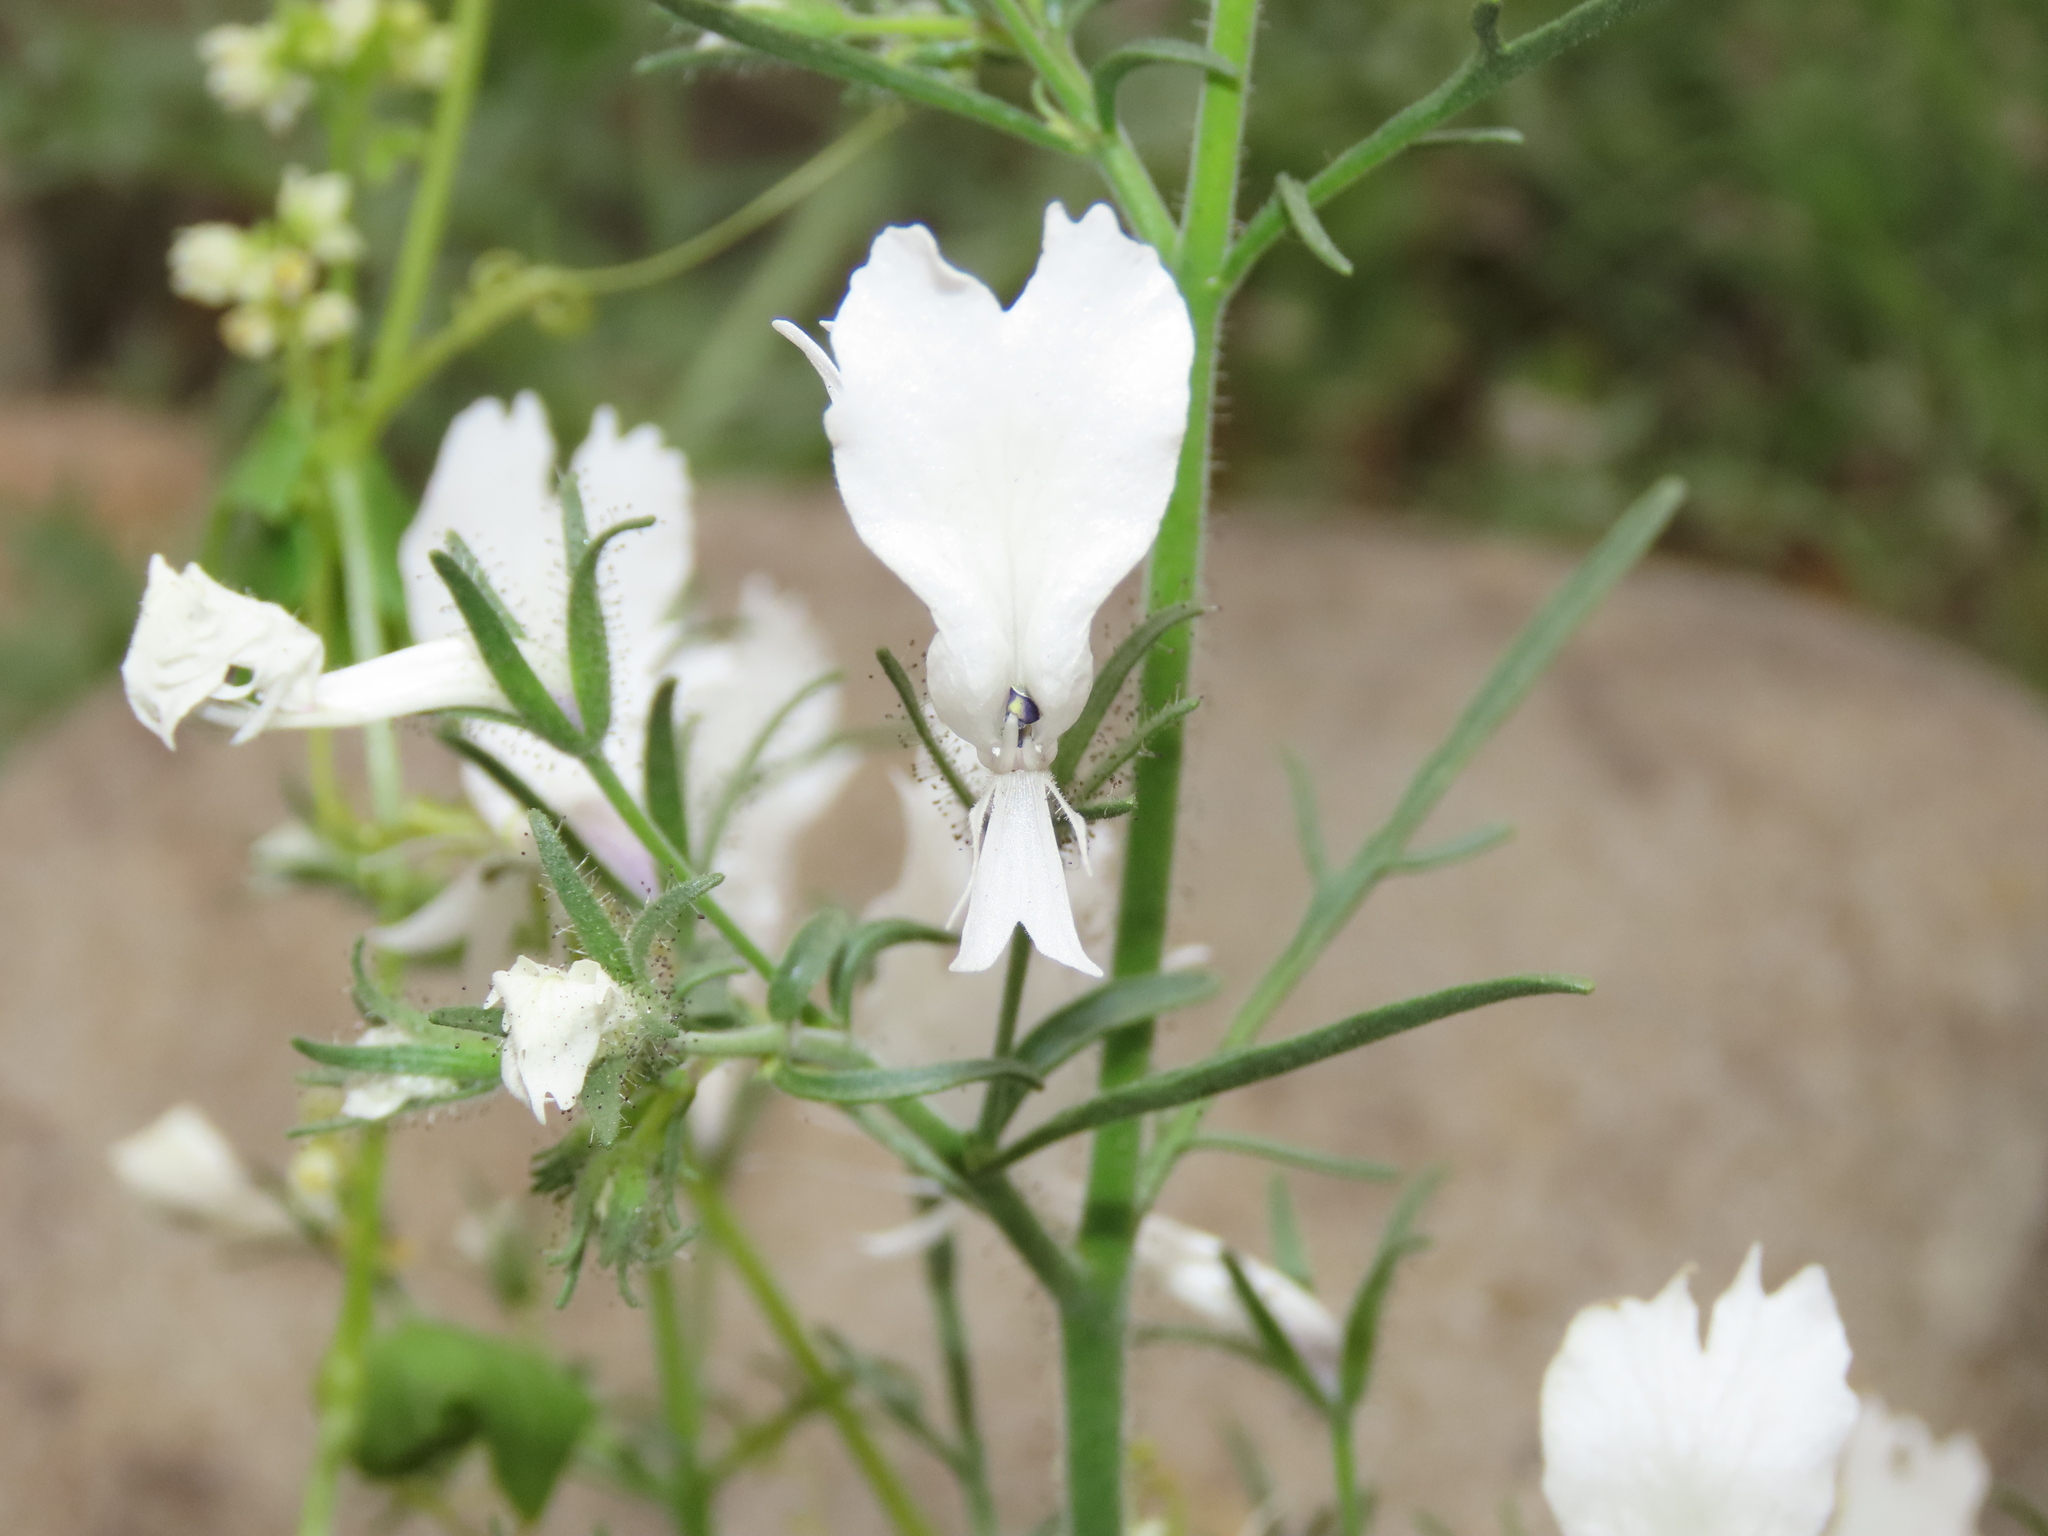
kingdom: Plantae
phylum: Tracheophyta
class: Magnoliopsida
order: Solanales
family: Solanaceae
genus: Schizanthus
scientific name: Schizanthus candidus
